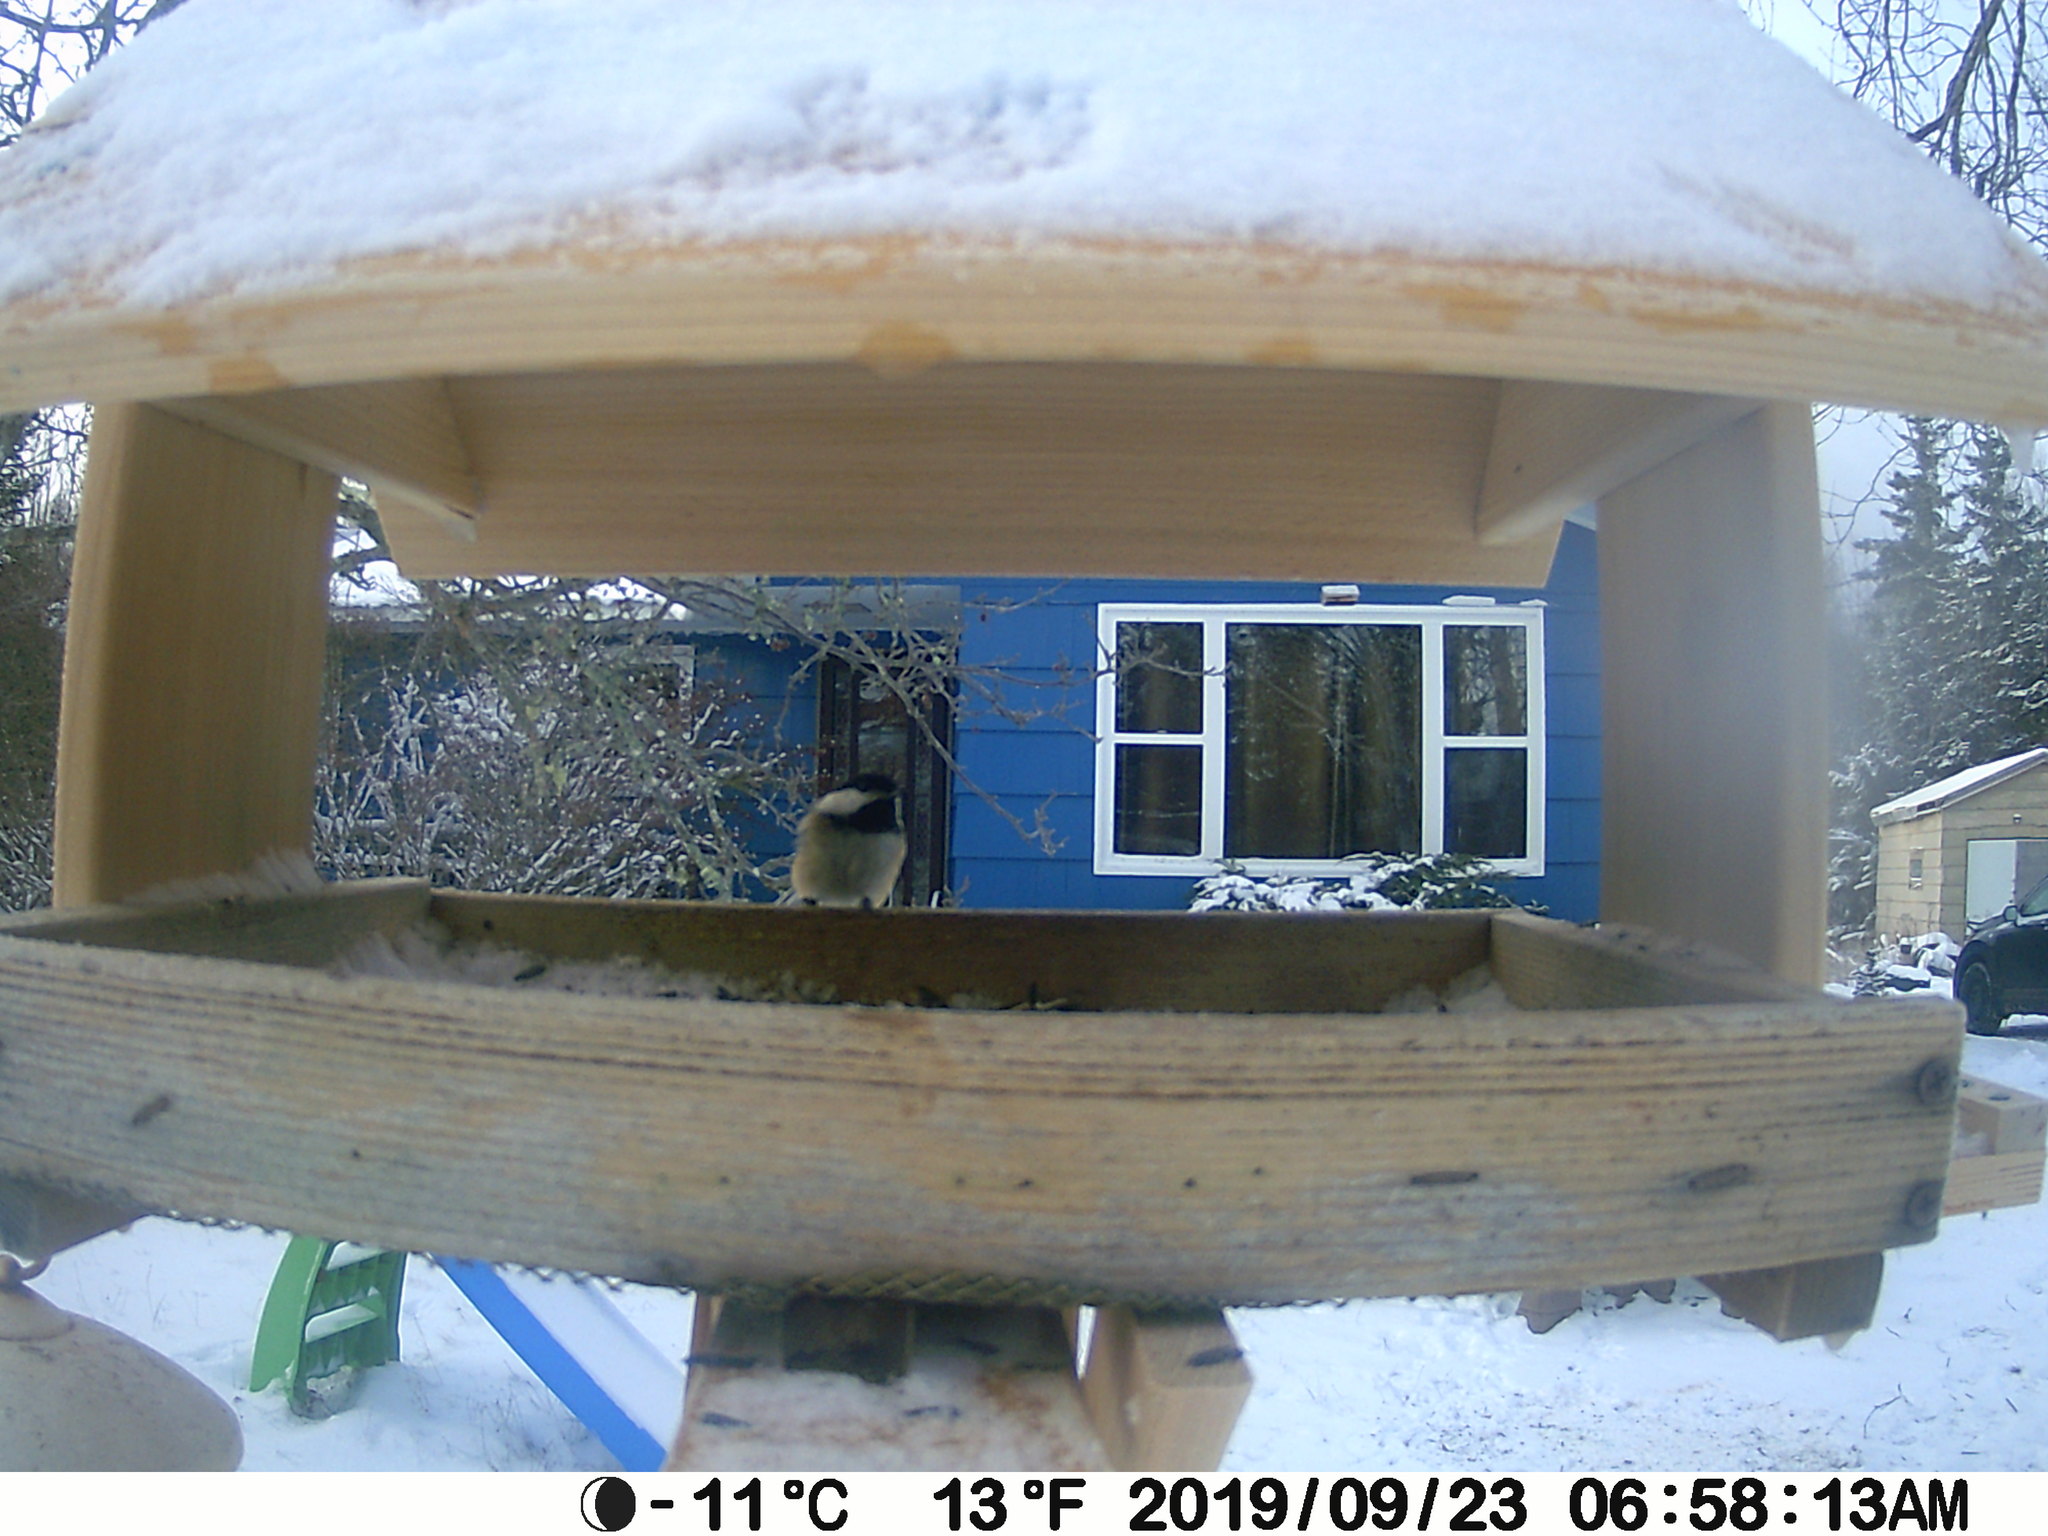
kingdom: Animalia
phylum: Chordata
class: Aves
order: Passeriformes
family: Paridae
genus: Poecile
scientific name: Poecile atricapillus
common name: Black-capped chickadee
